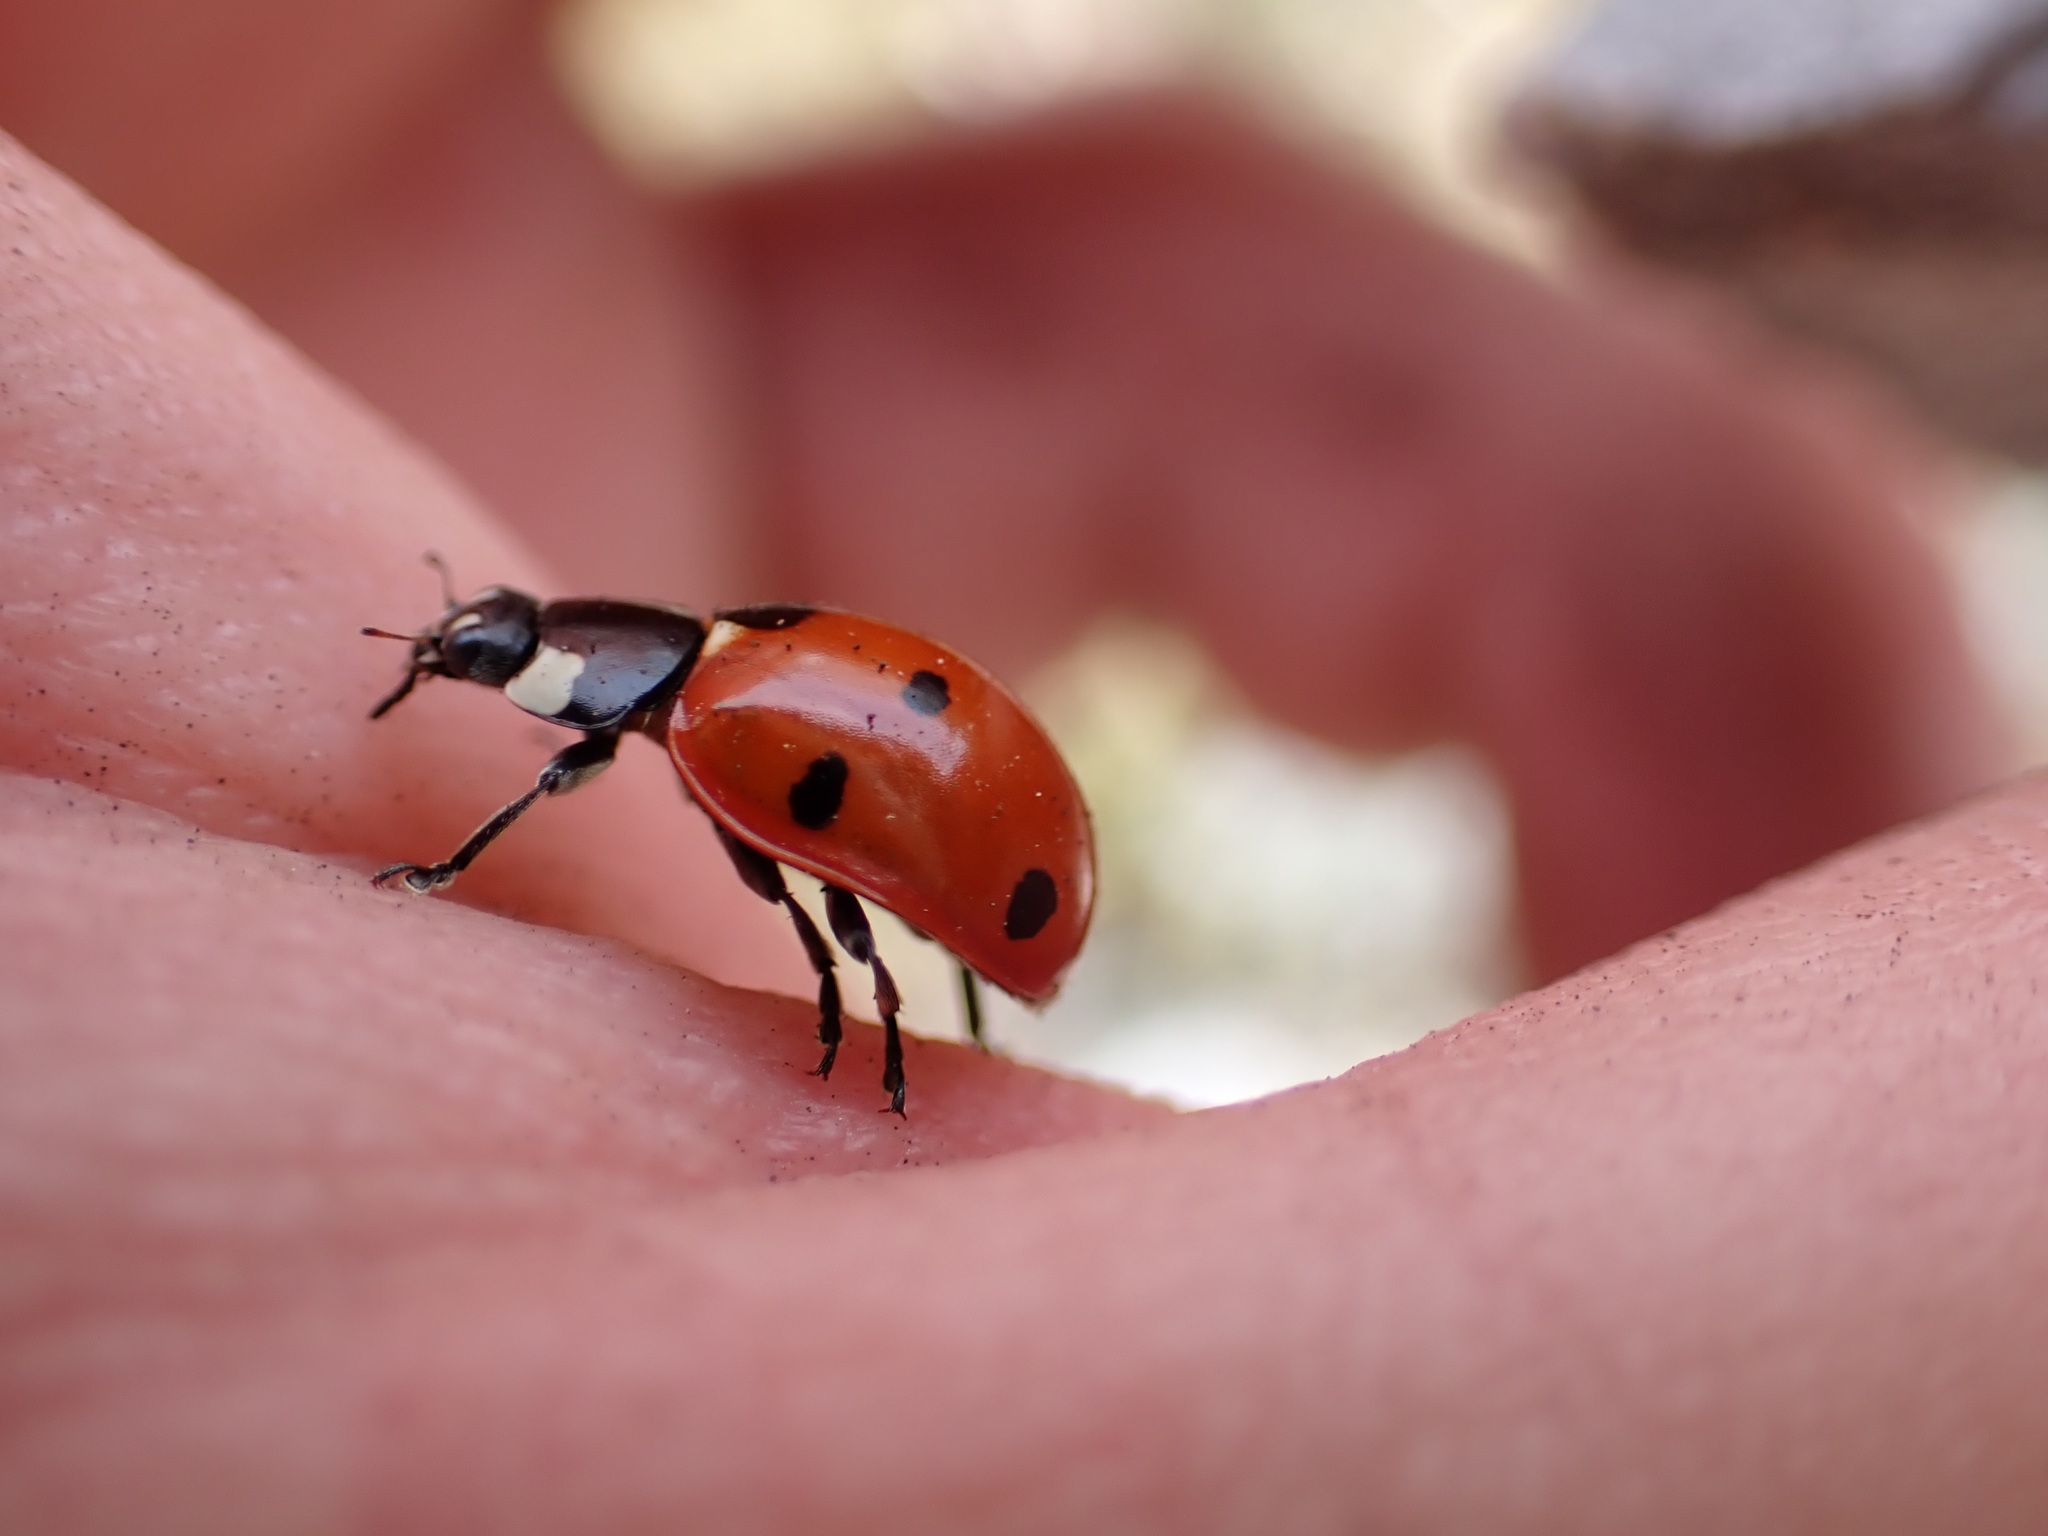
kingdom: Animalia
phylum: Arthropoda
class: Insecta
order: Coleoptera
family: Coccinellidae
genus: Coccinella
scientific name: Coccinella septempunctata
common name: Sevenspotted lady beetle
